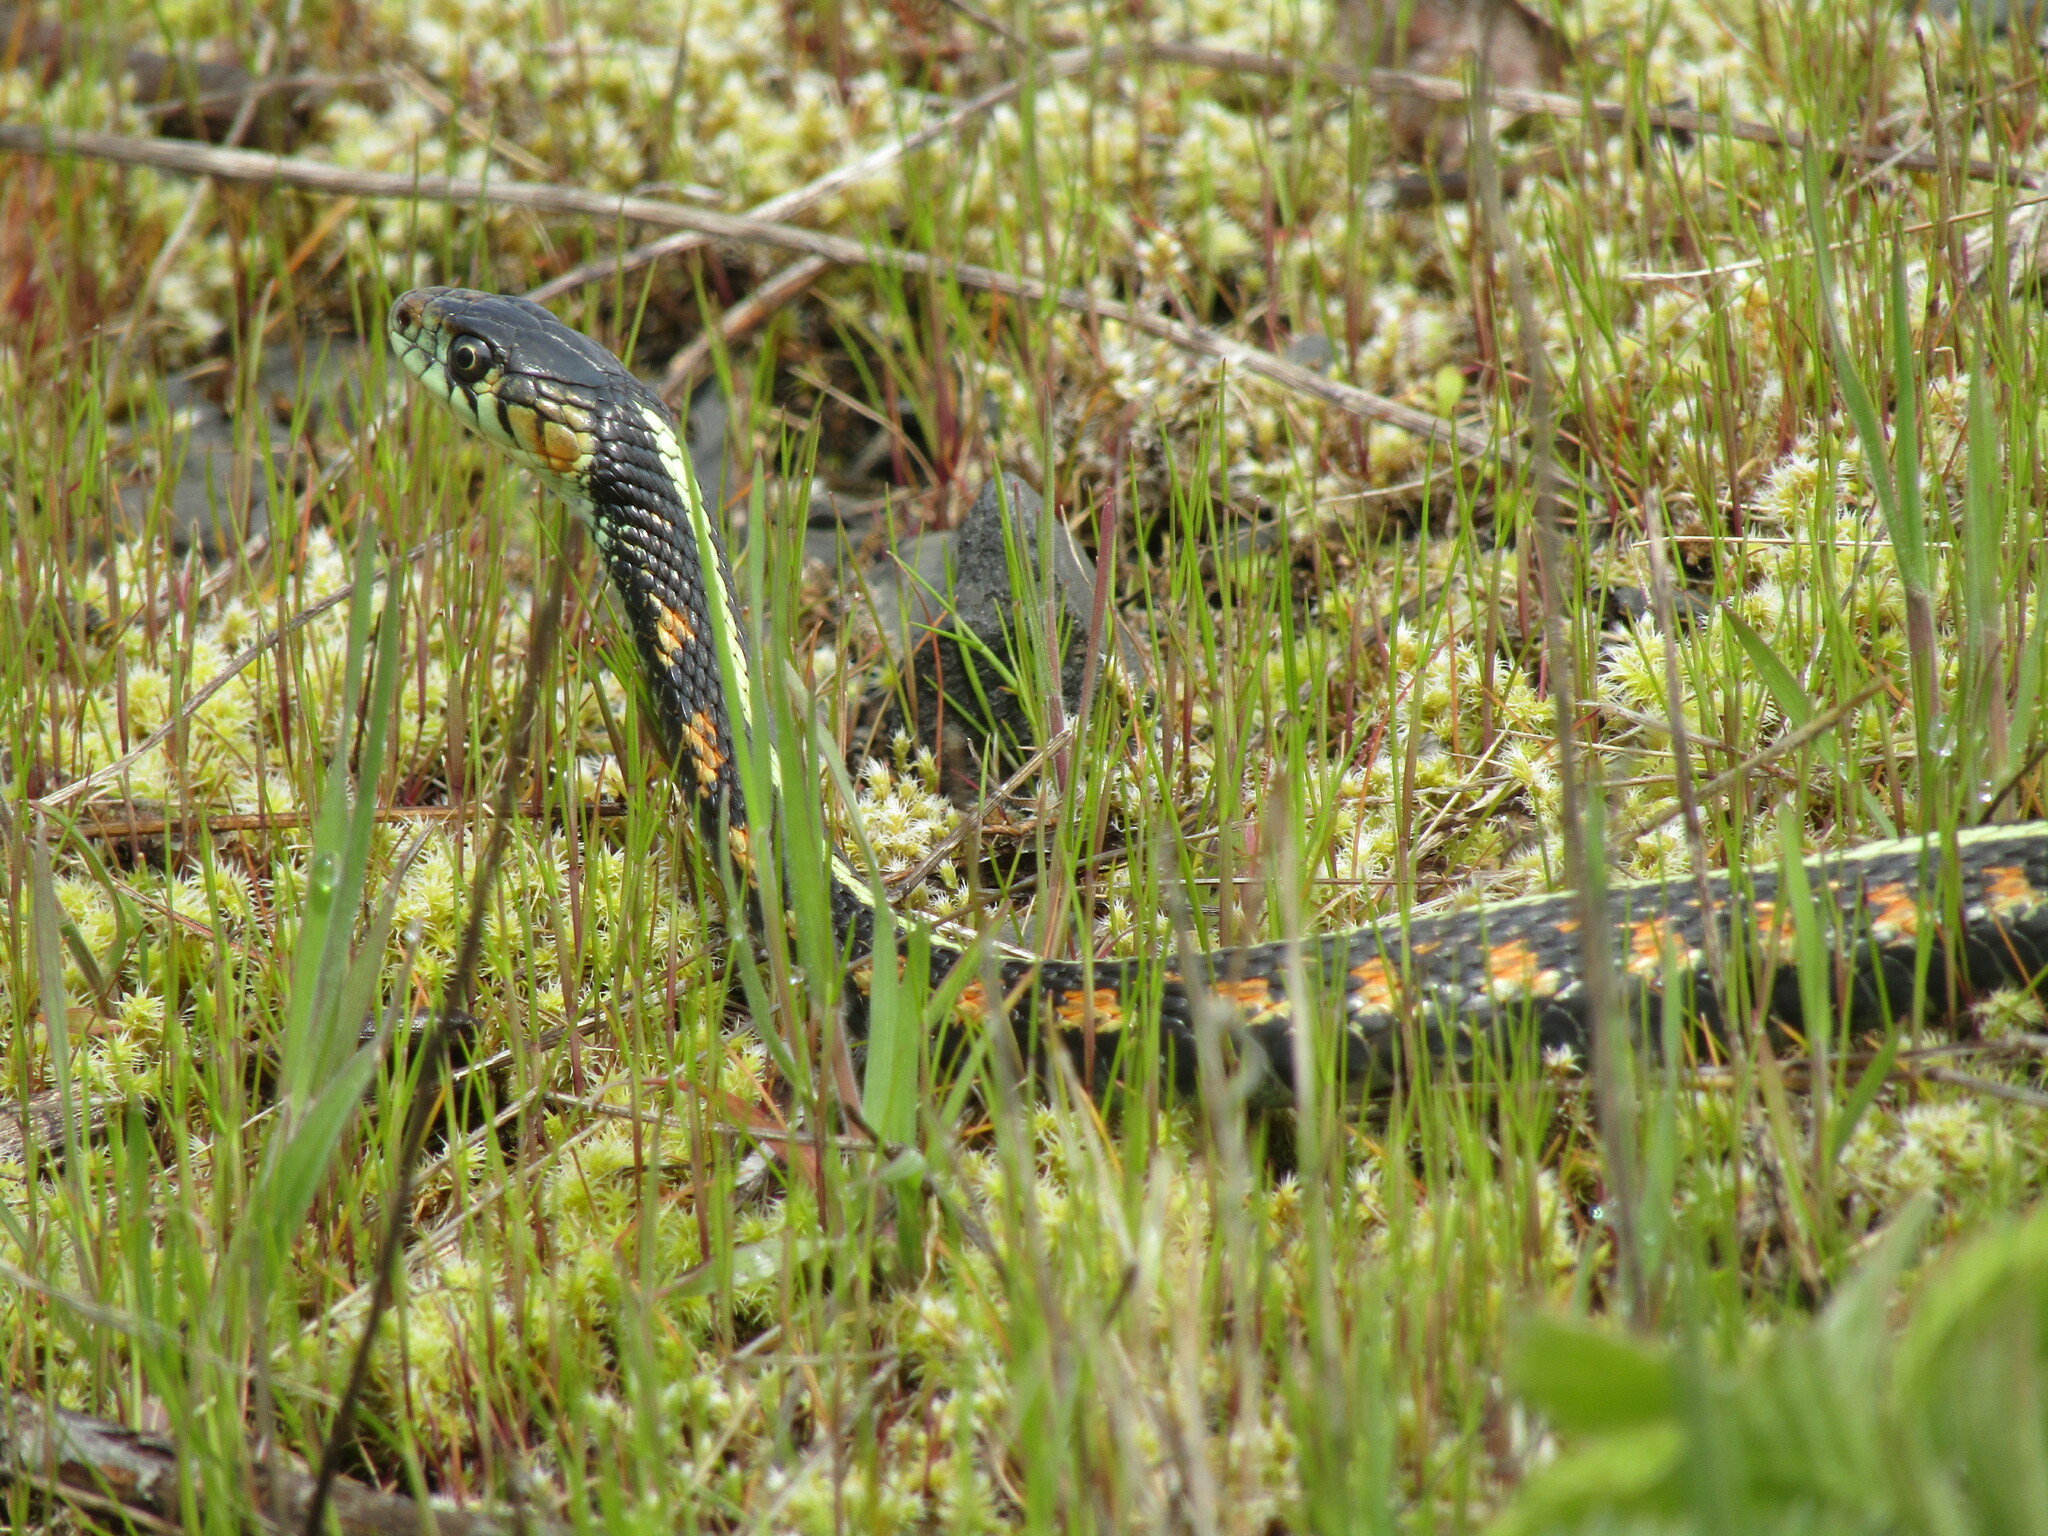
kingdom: Animalia
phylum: Chordata
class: Squamata
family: Colubridae
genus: Thamnophis
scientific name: Thamnophis sirtalis
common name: Common garter snake
